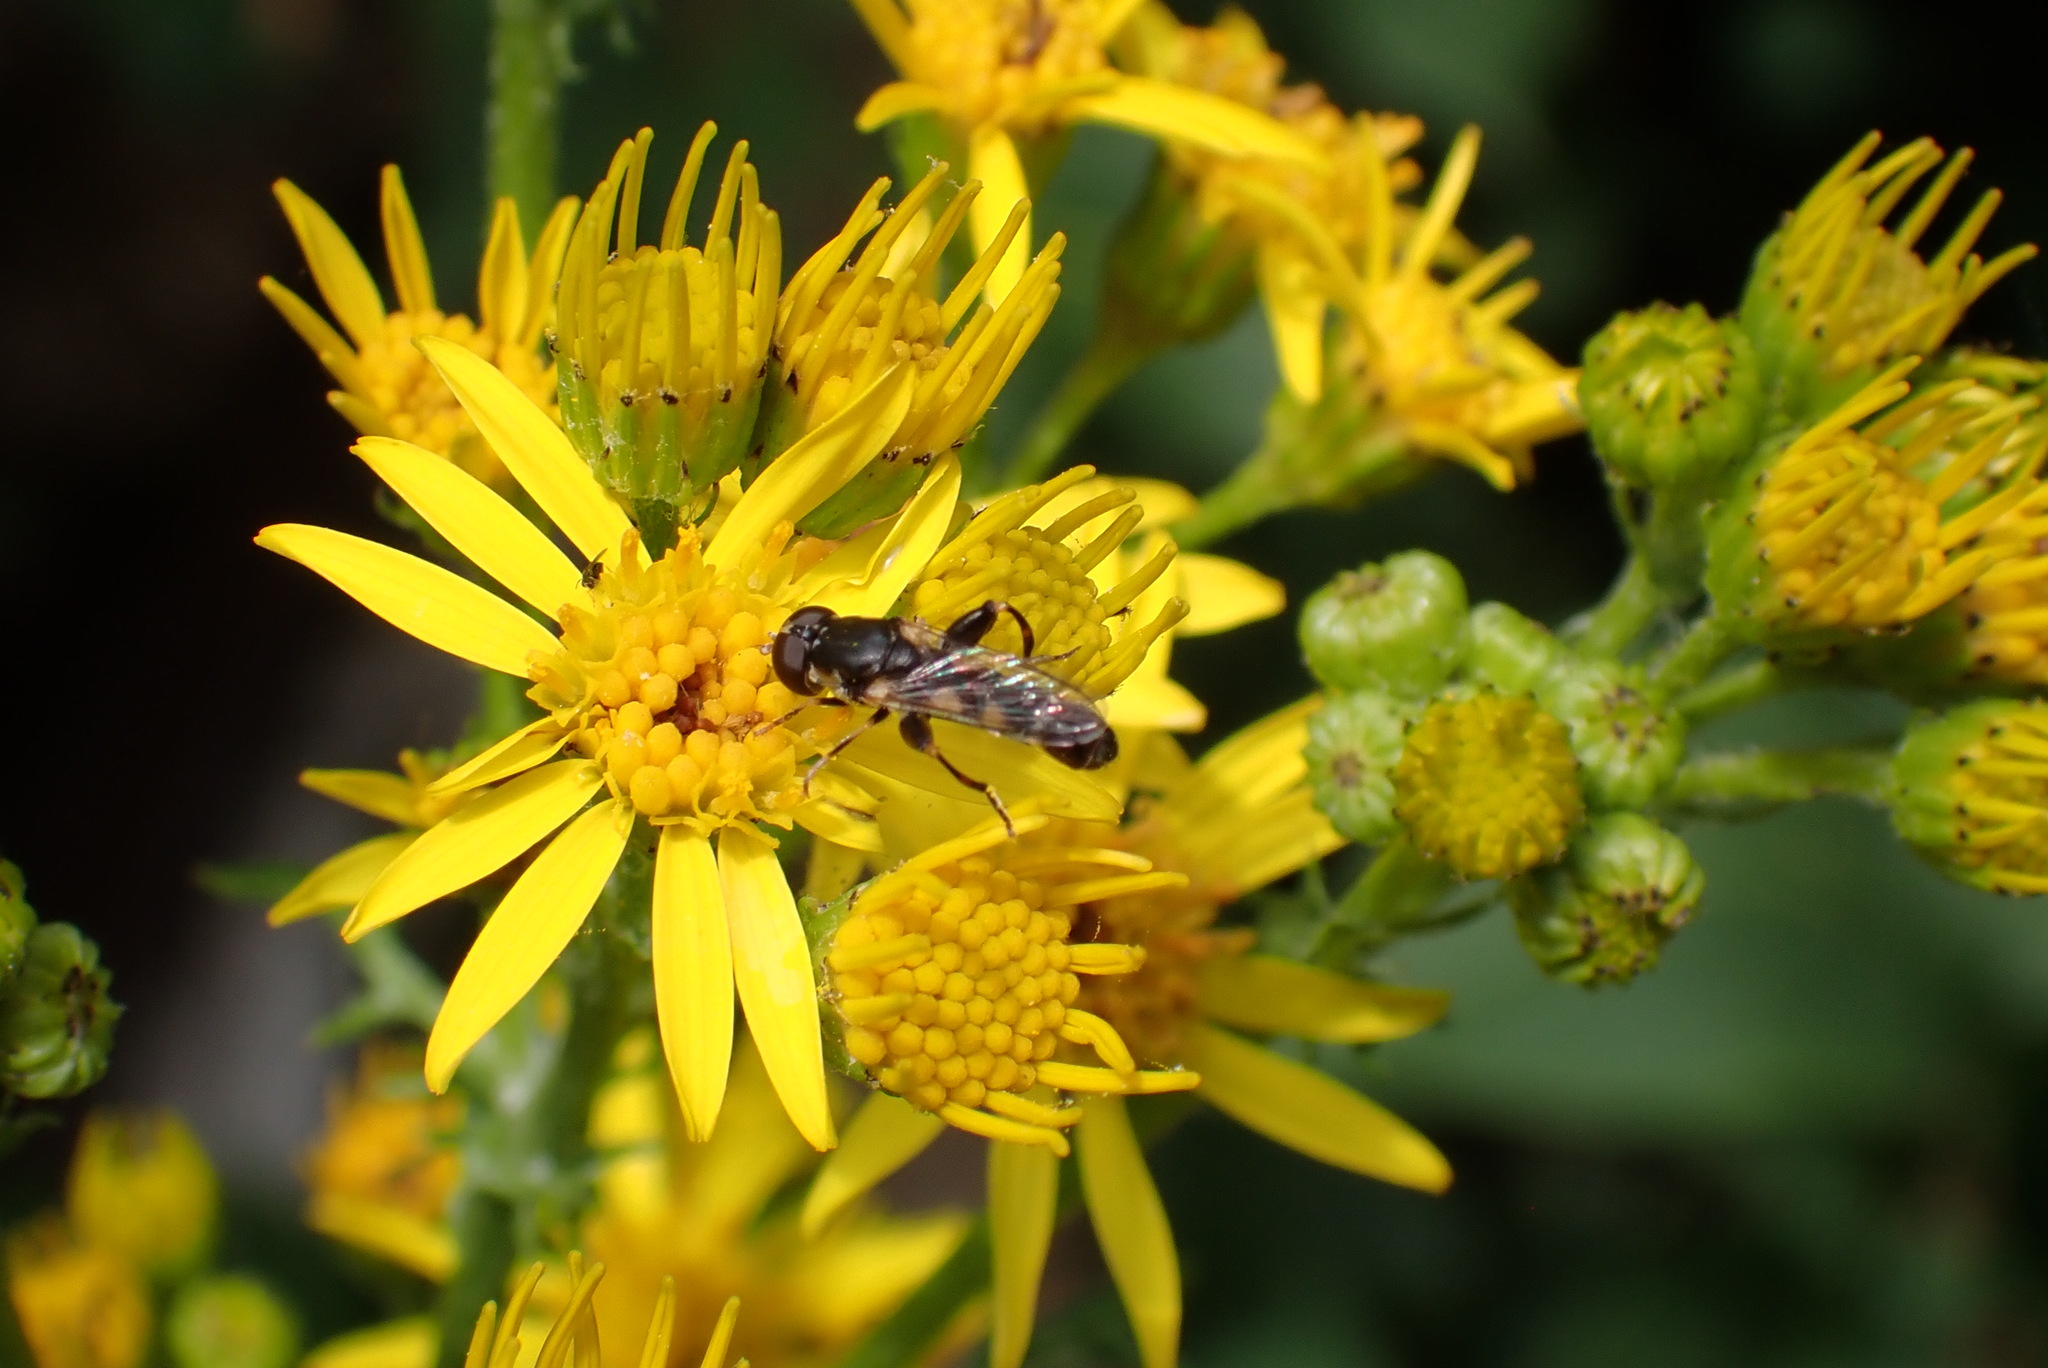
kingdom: Animalia
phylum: Arthropoda
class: Insecta
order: Diptera
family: Syrphidae
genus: Syritta
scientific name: Syritta pipiens
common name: Hover fly
